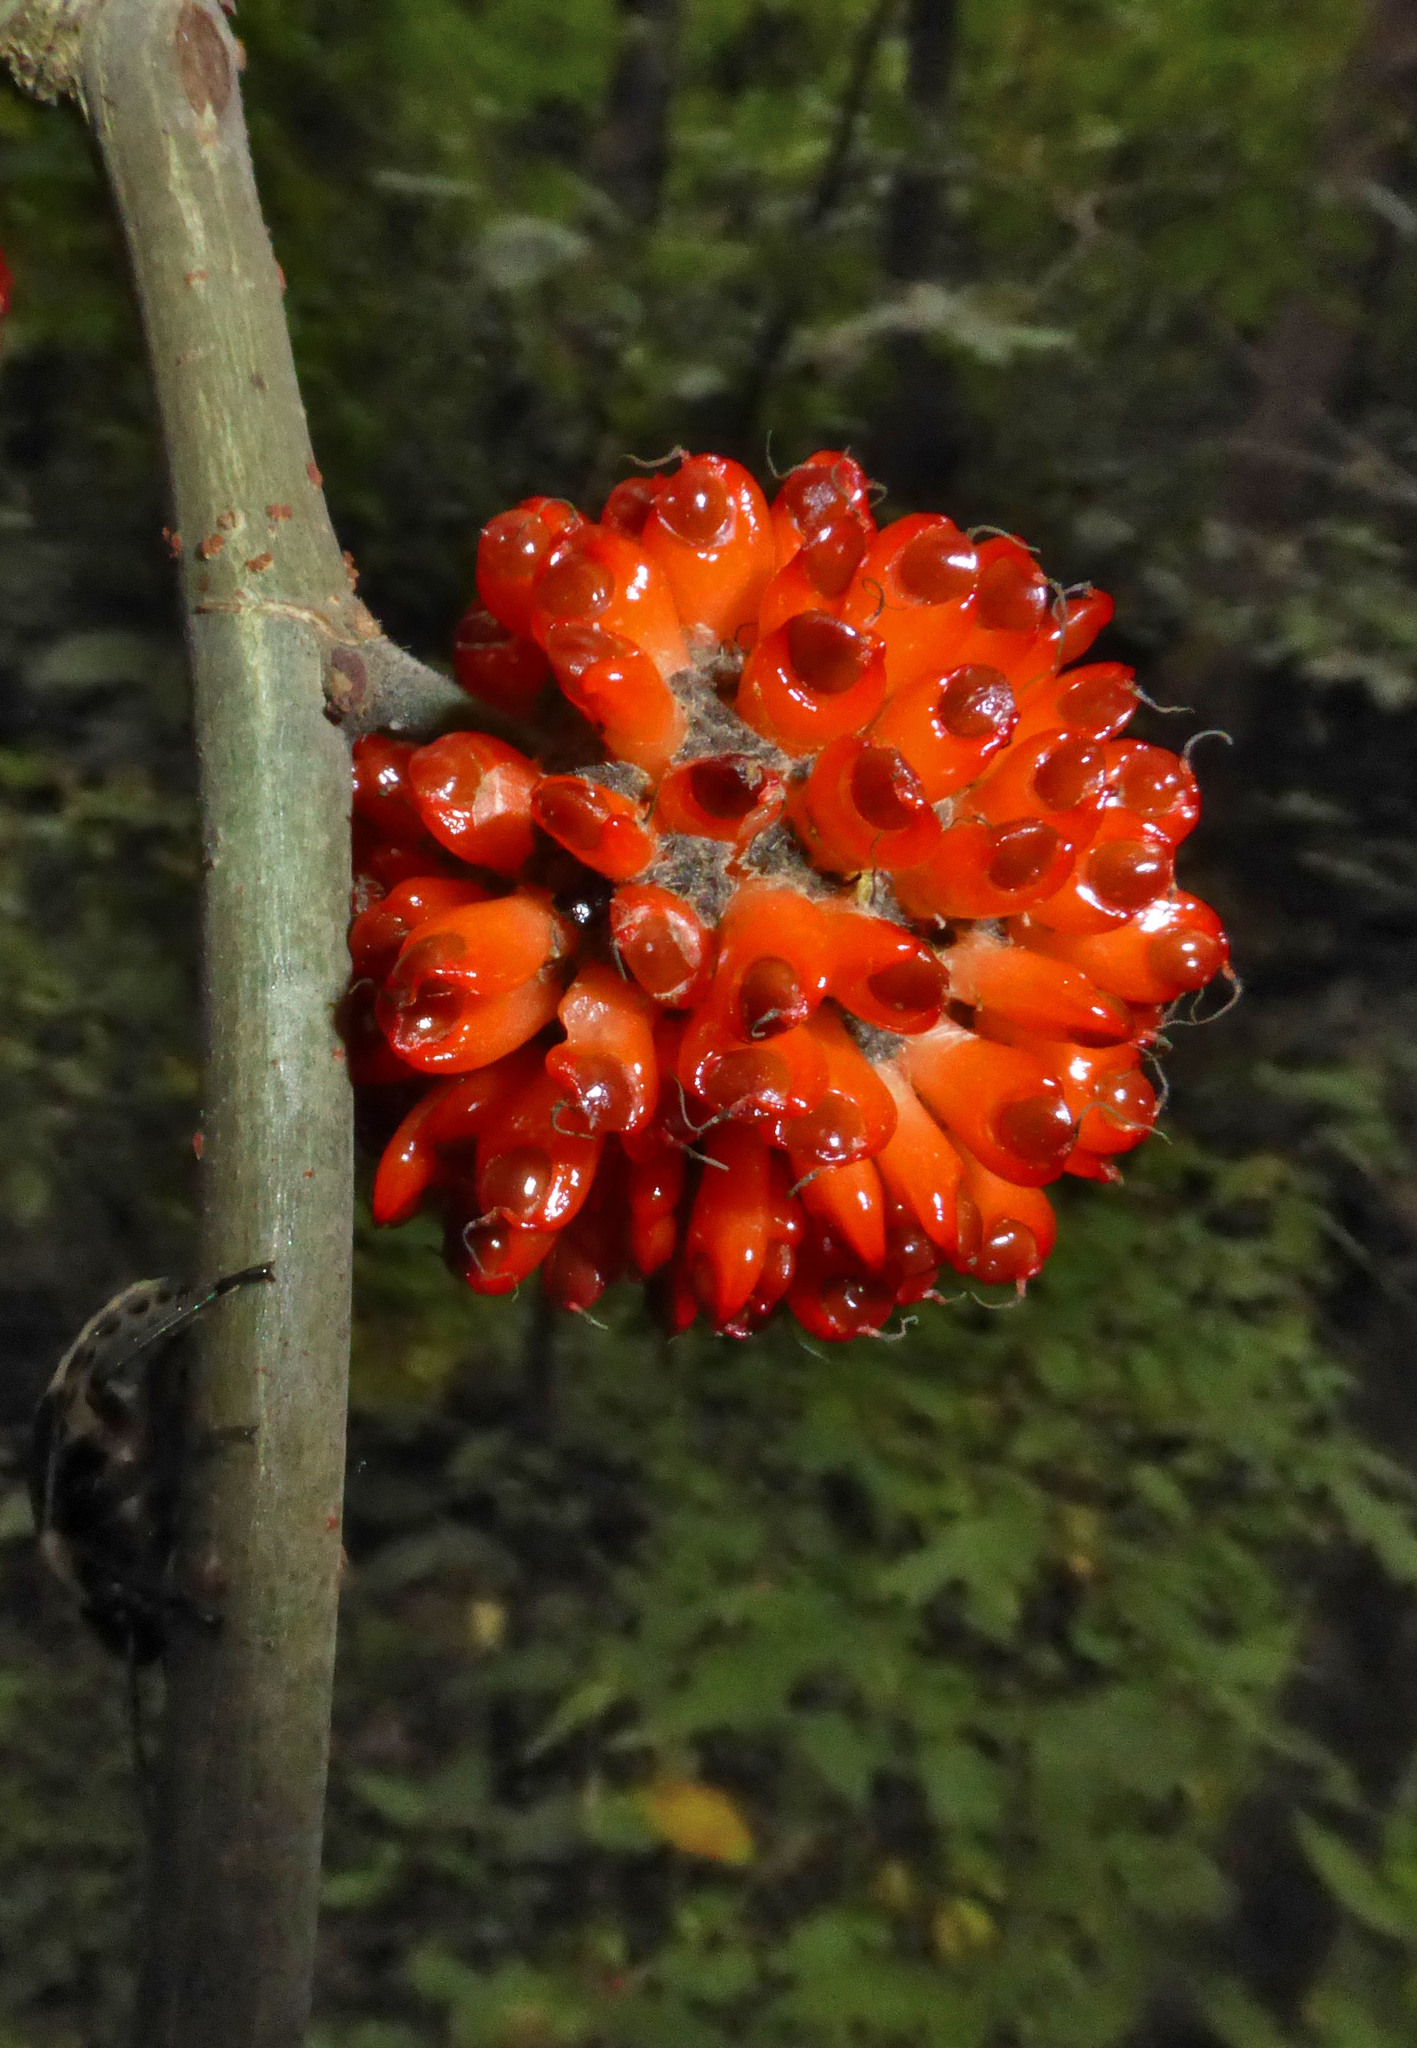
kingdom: Plantae
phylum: Tracheophyta
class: Magnoliopsida
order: Rosales
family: Moraceae
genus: Broussonetia
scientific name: Broussonetia papyrifera
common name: Paper mulberry
